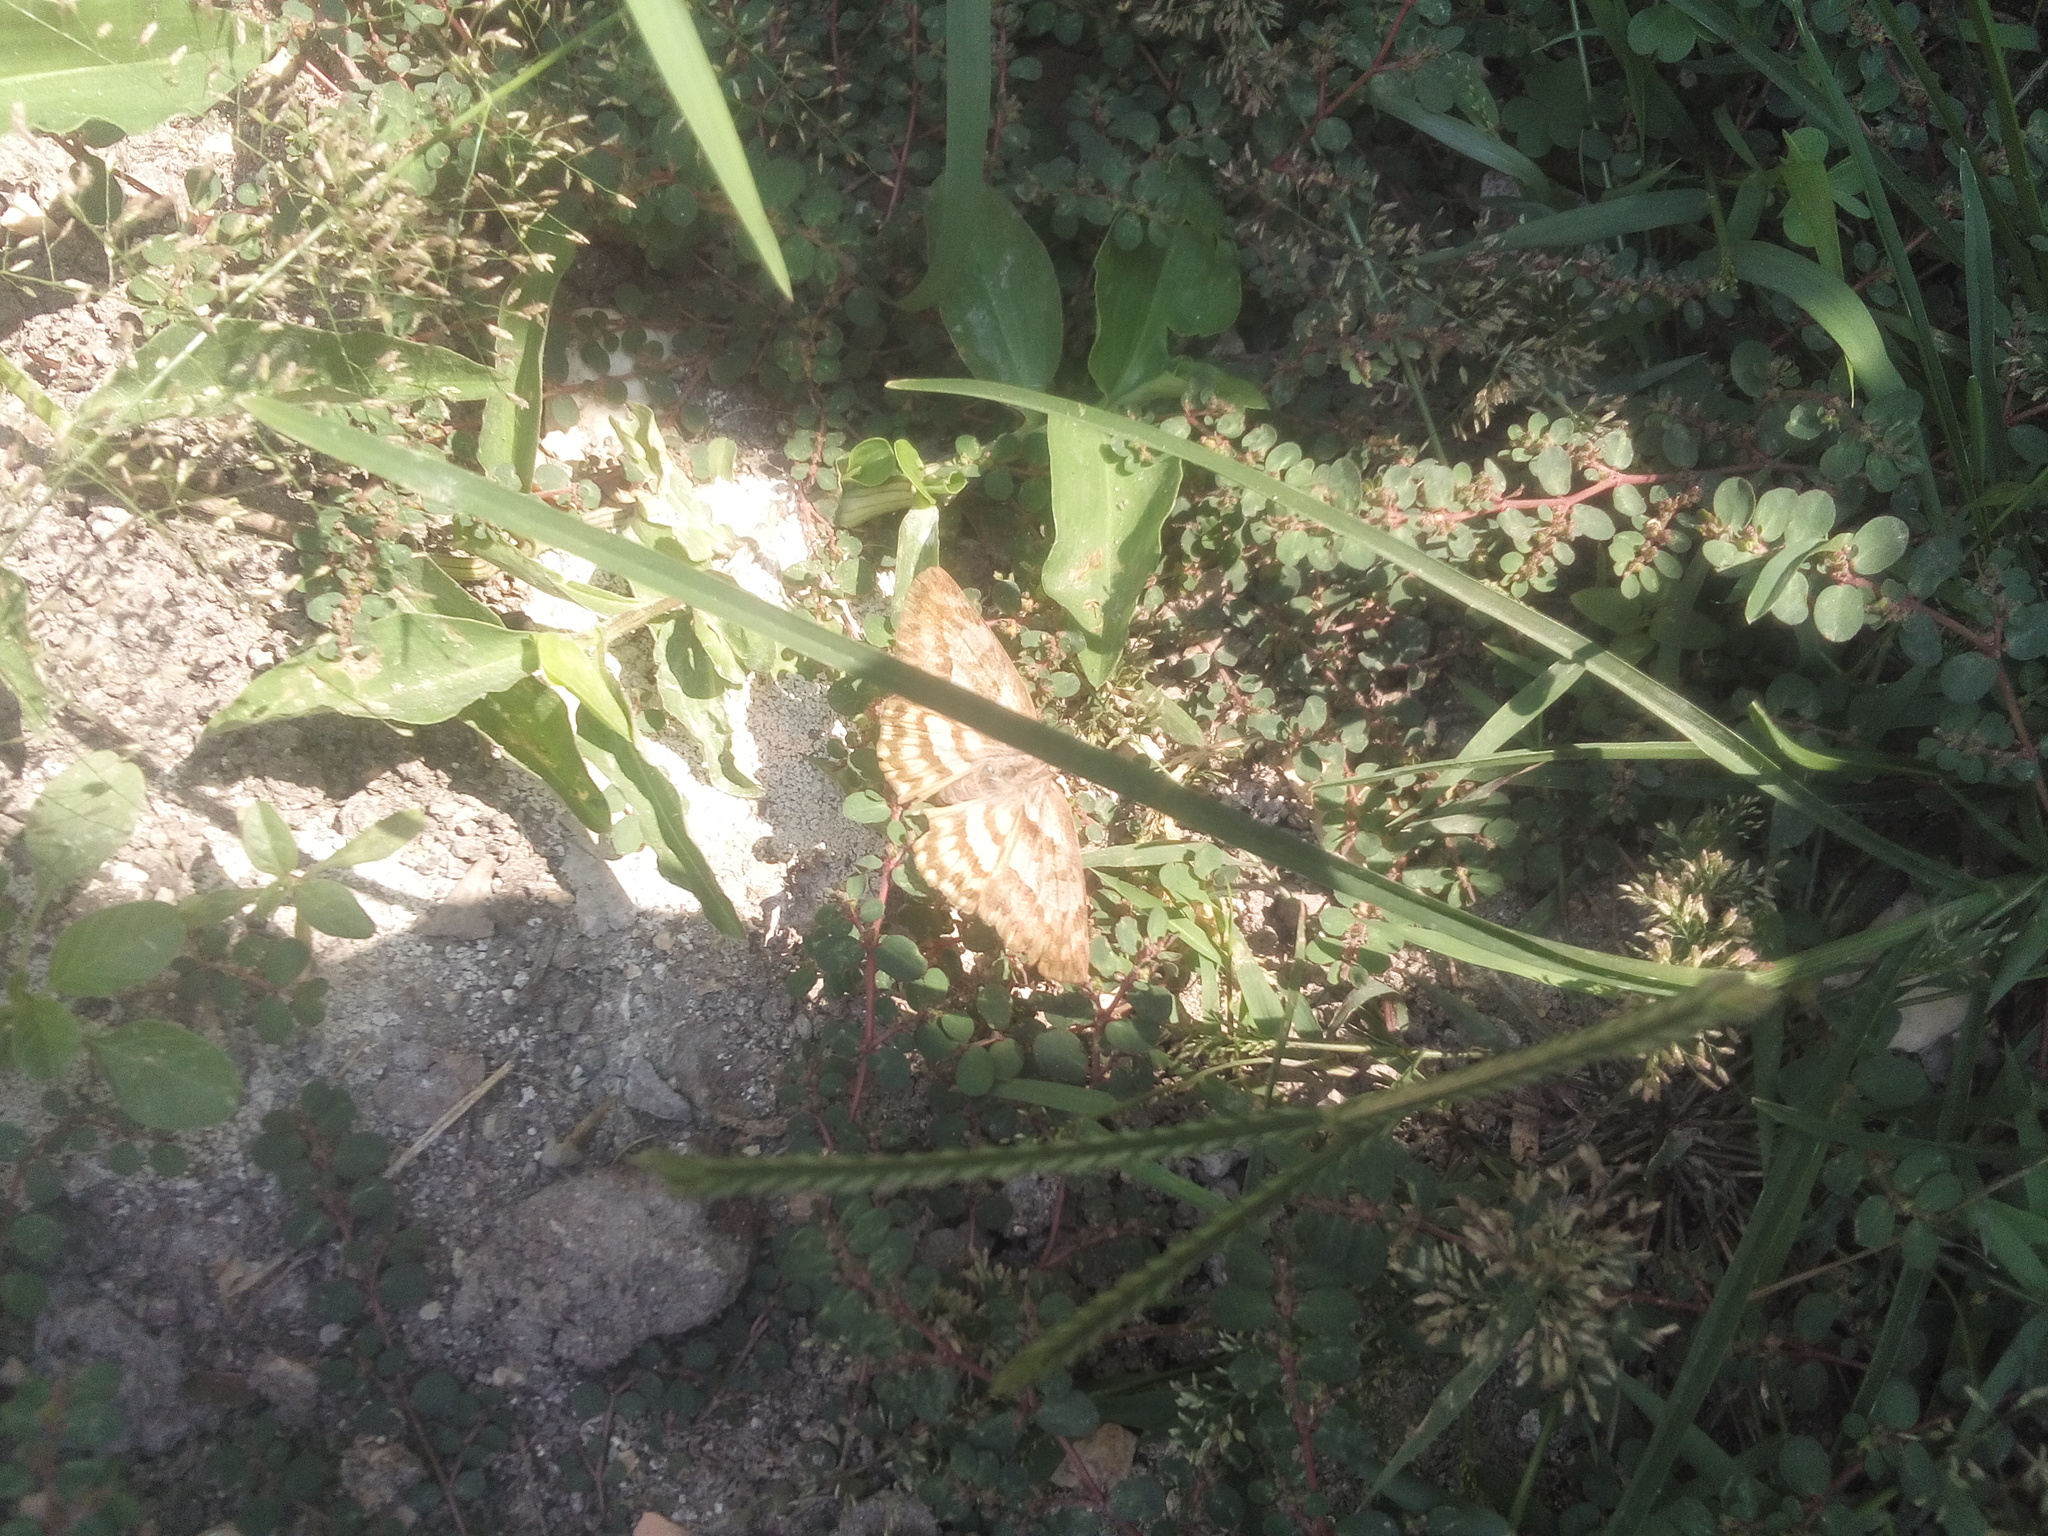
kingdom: Animalia
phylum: Arthropoda
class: Insecta
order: Lepidoptera
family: Hesperiidae
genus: Timochares
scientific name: Timochares trifasciata
